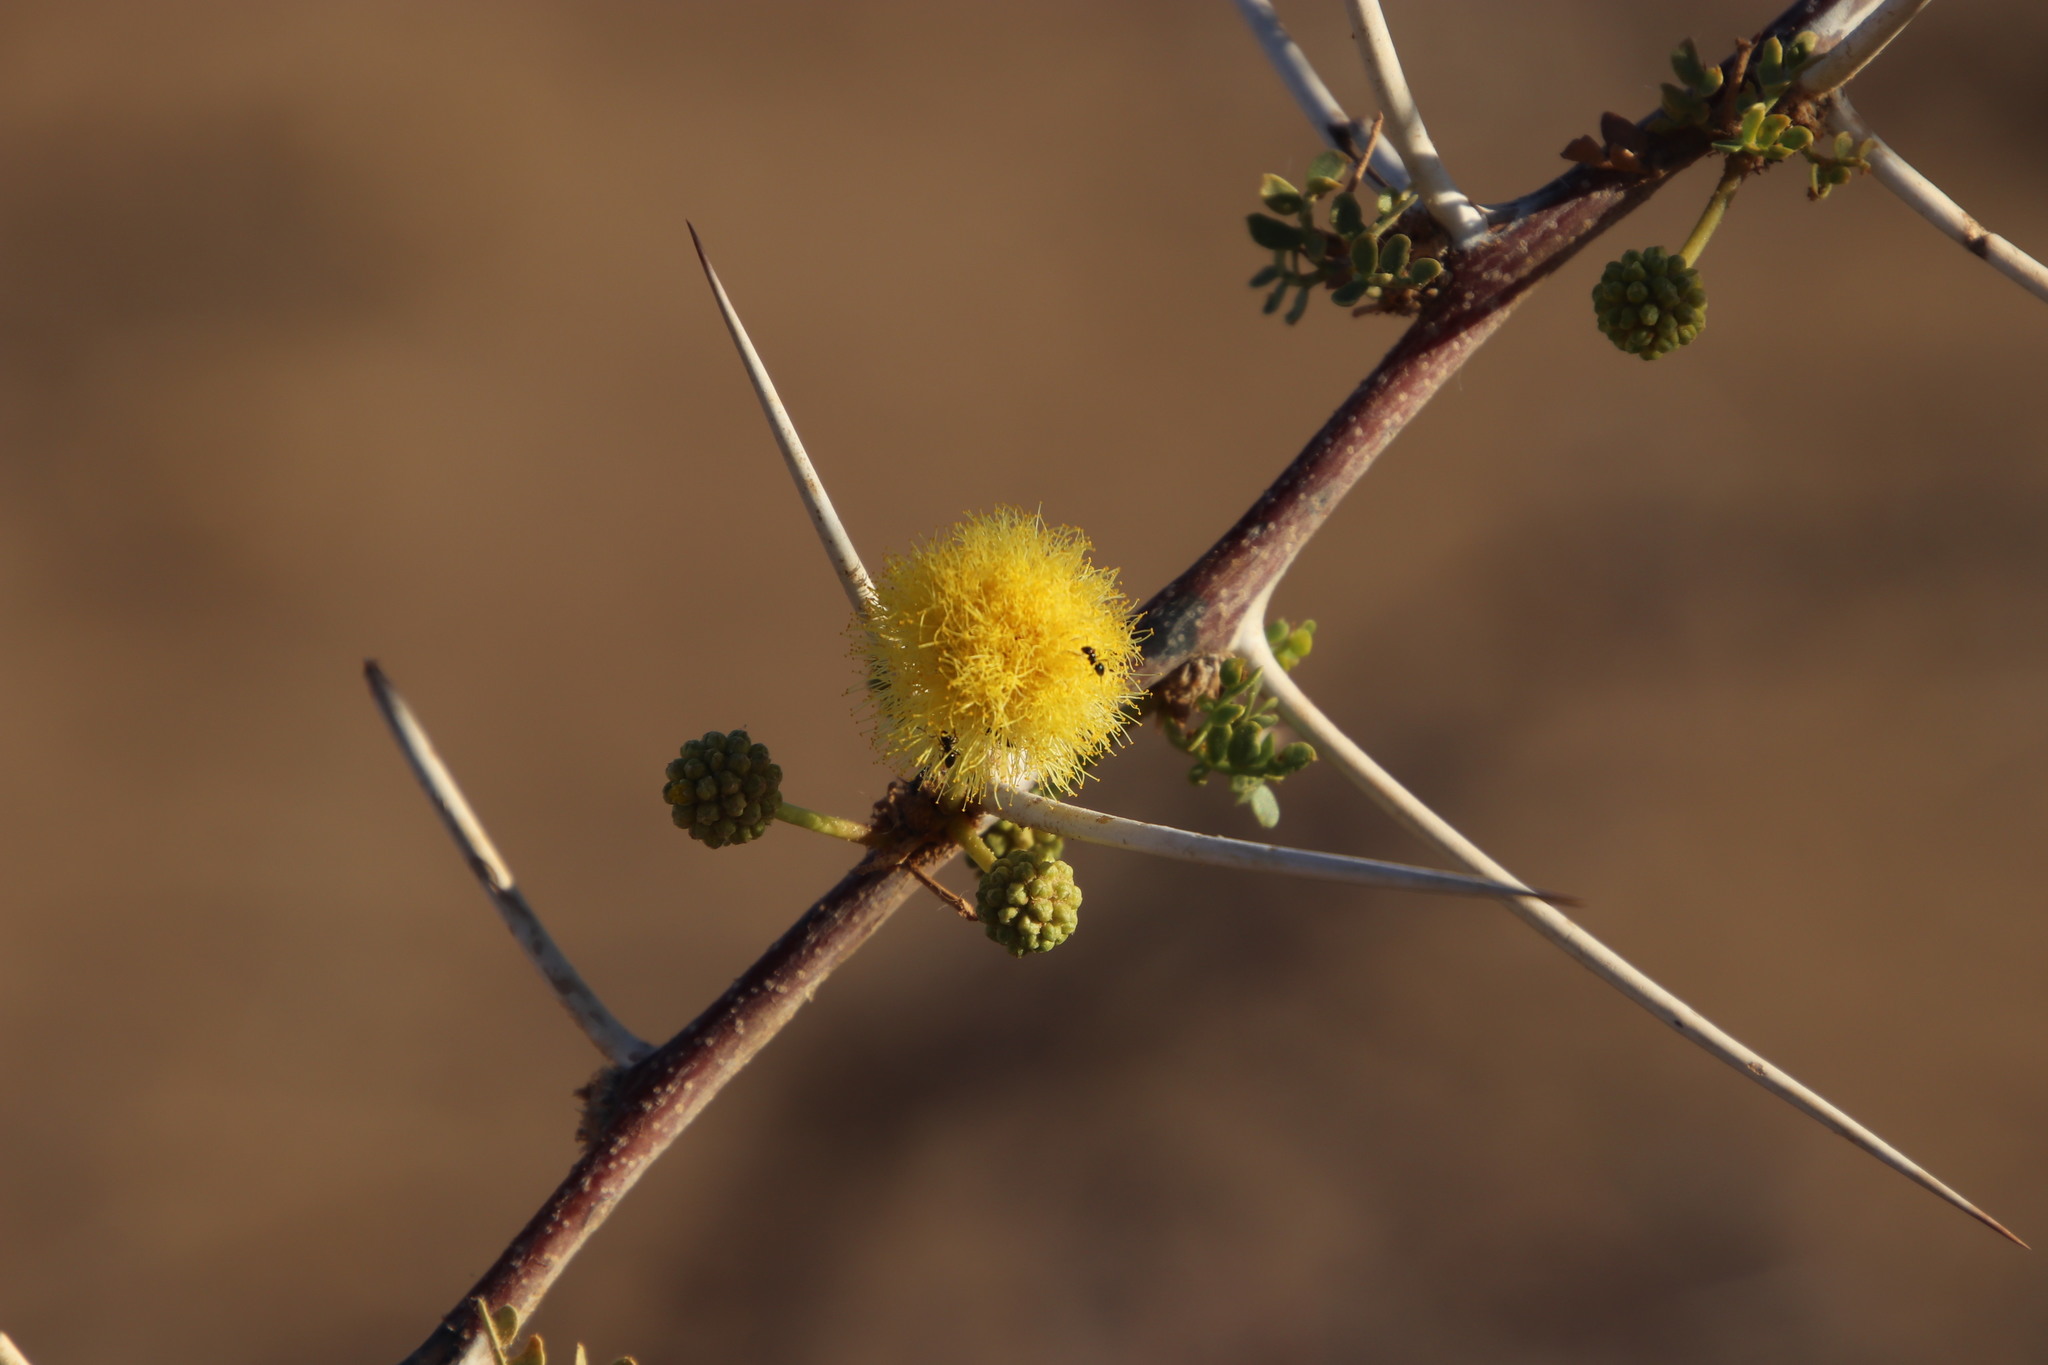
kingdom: Plantae
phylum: Tracheophyta
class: Magnoliopsida
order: Fabales
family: Fabaceae
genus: Vachellia
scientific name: Vachellia nebrownii
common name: Water acacia
